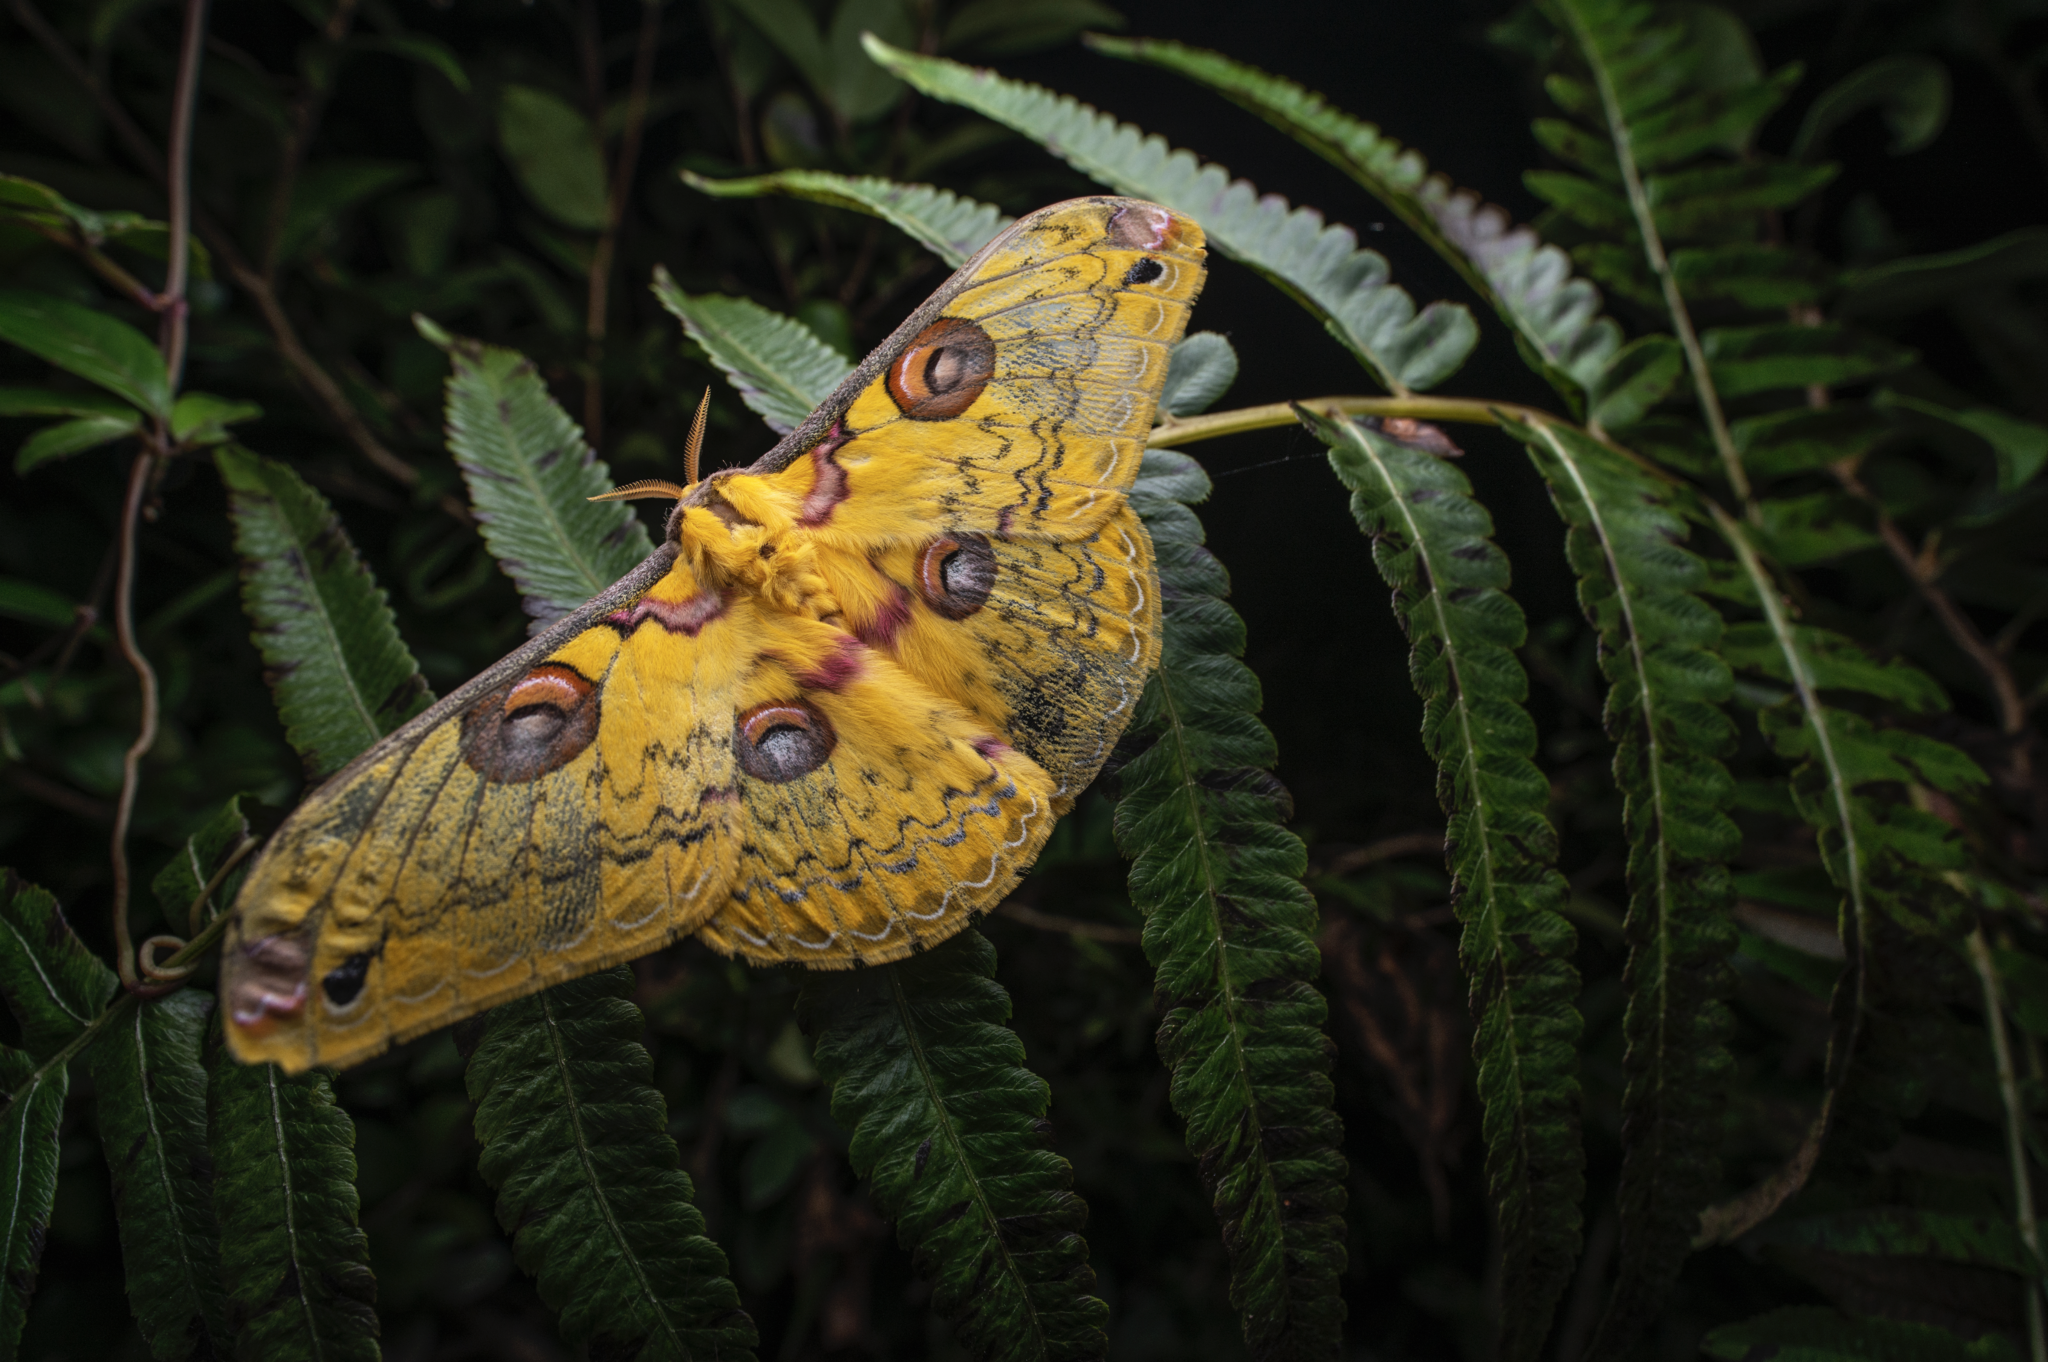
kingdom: Animalia
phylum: Arthropoda
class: Insecta
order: Lepidoptera
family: Saturniidae
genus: Loepa
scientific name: Loepa sikkima
